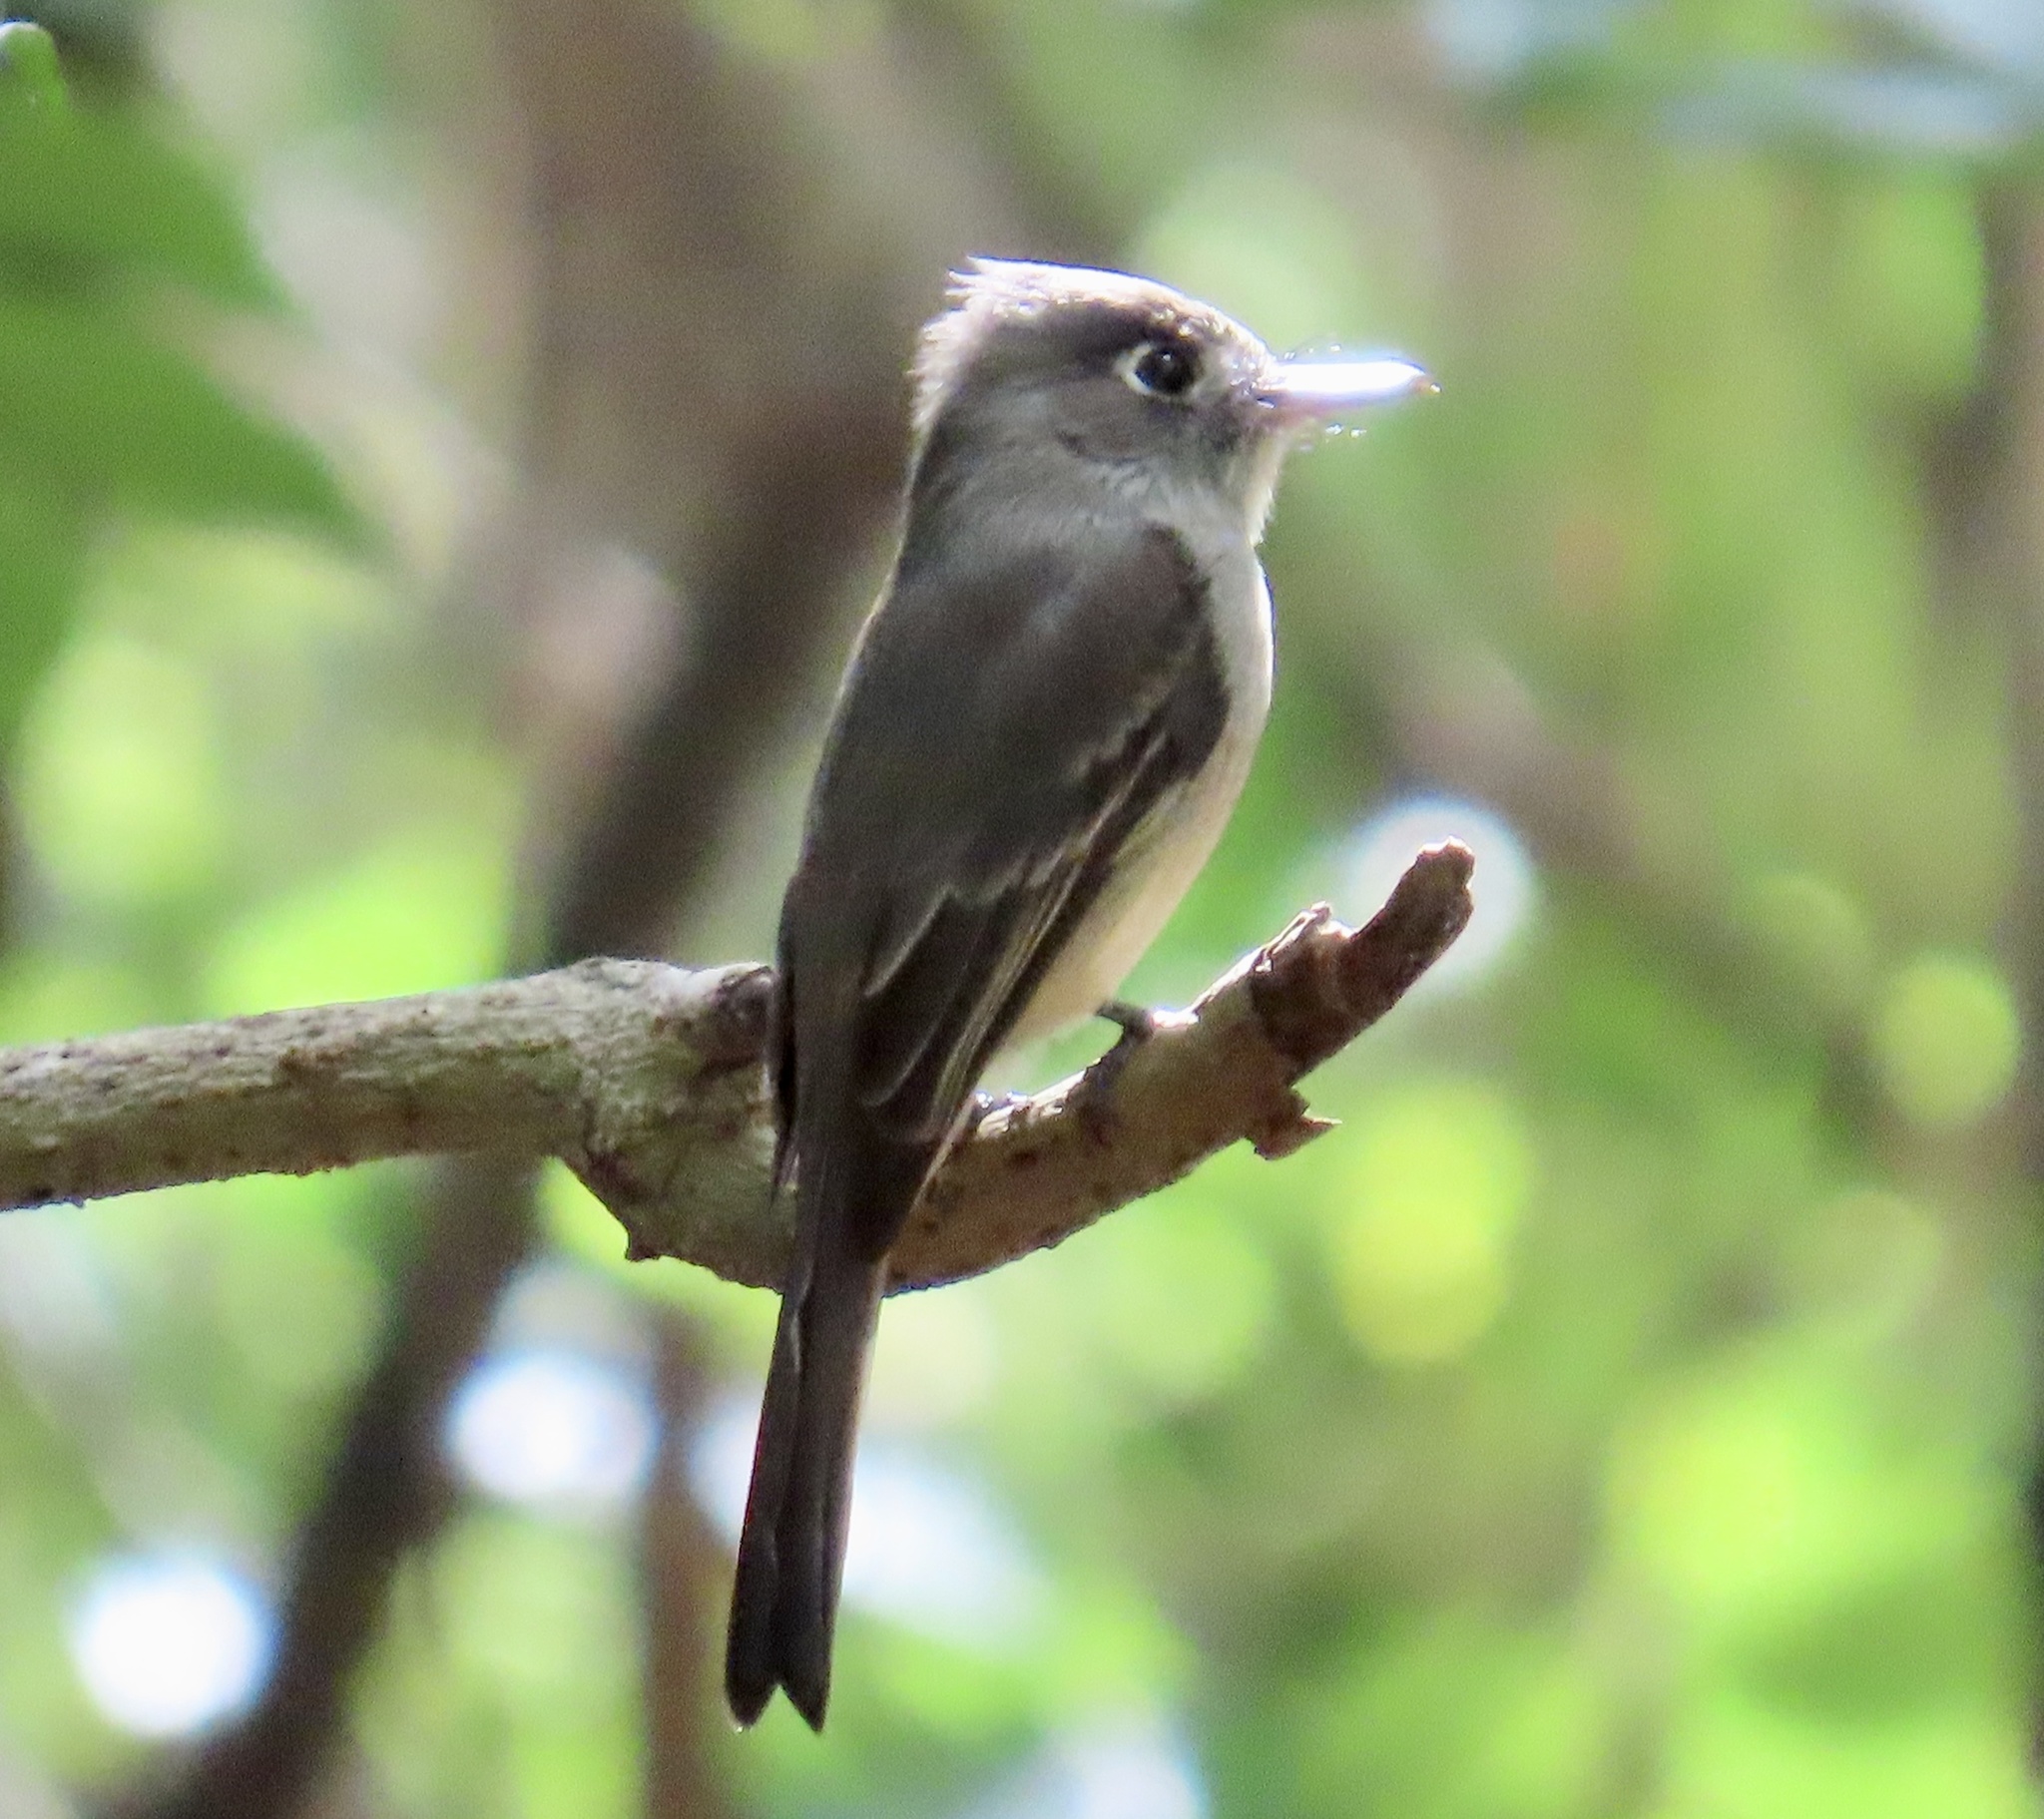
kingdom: Animalia
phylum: Chordata
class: Aves
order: Passeriformes
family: Tyrannidae
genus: Contopus
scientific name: Contopus caribaeus
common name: Cuban pewee
